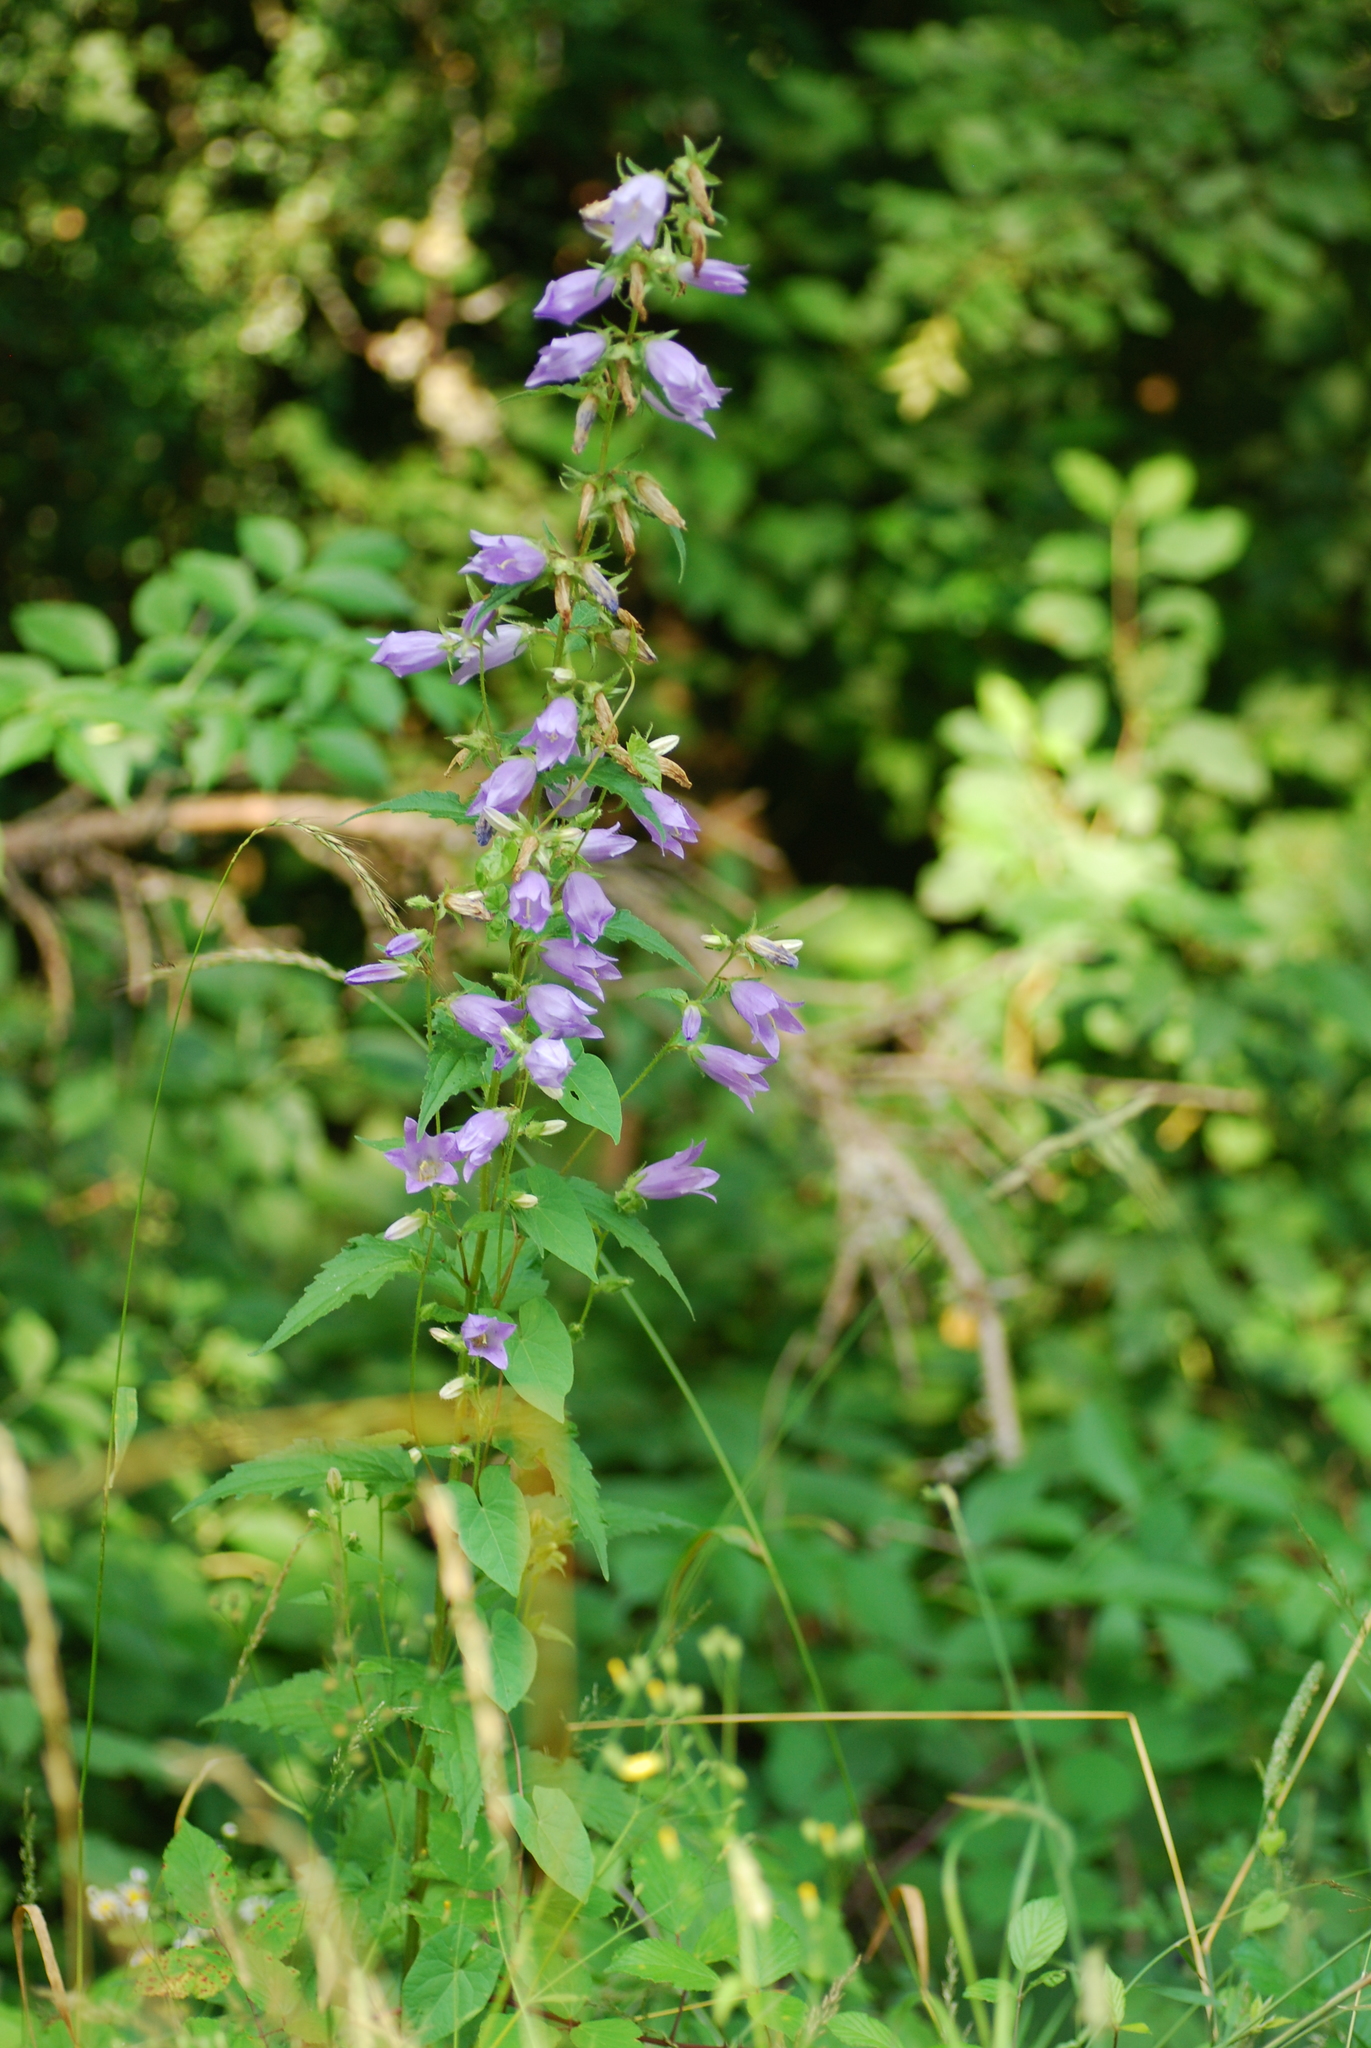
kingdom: Plantae
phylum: Tracheophyta
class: Magnoliopsida
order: Asterales
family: Campanulaceae
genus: Campanula
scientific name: Campanula trachelium
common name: Nettle-leaved bellflower
